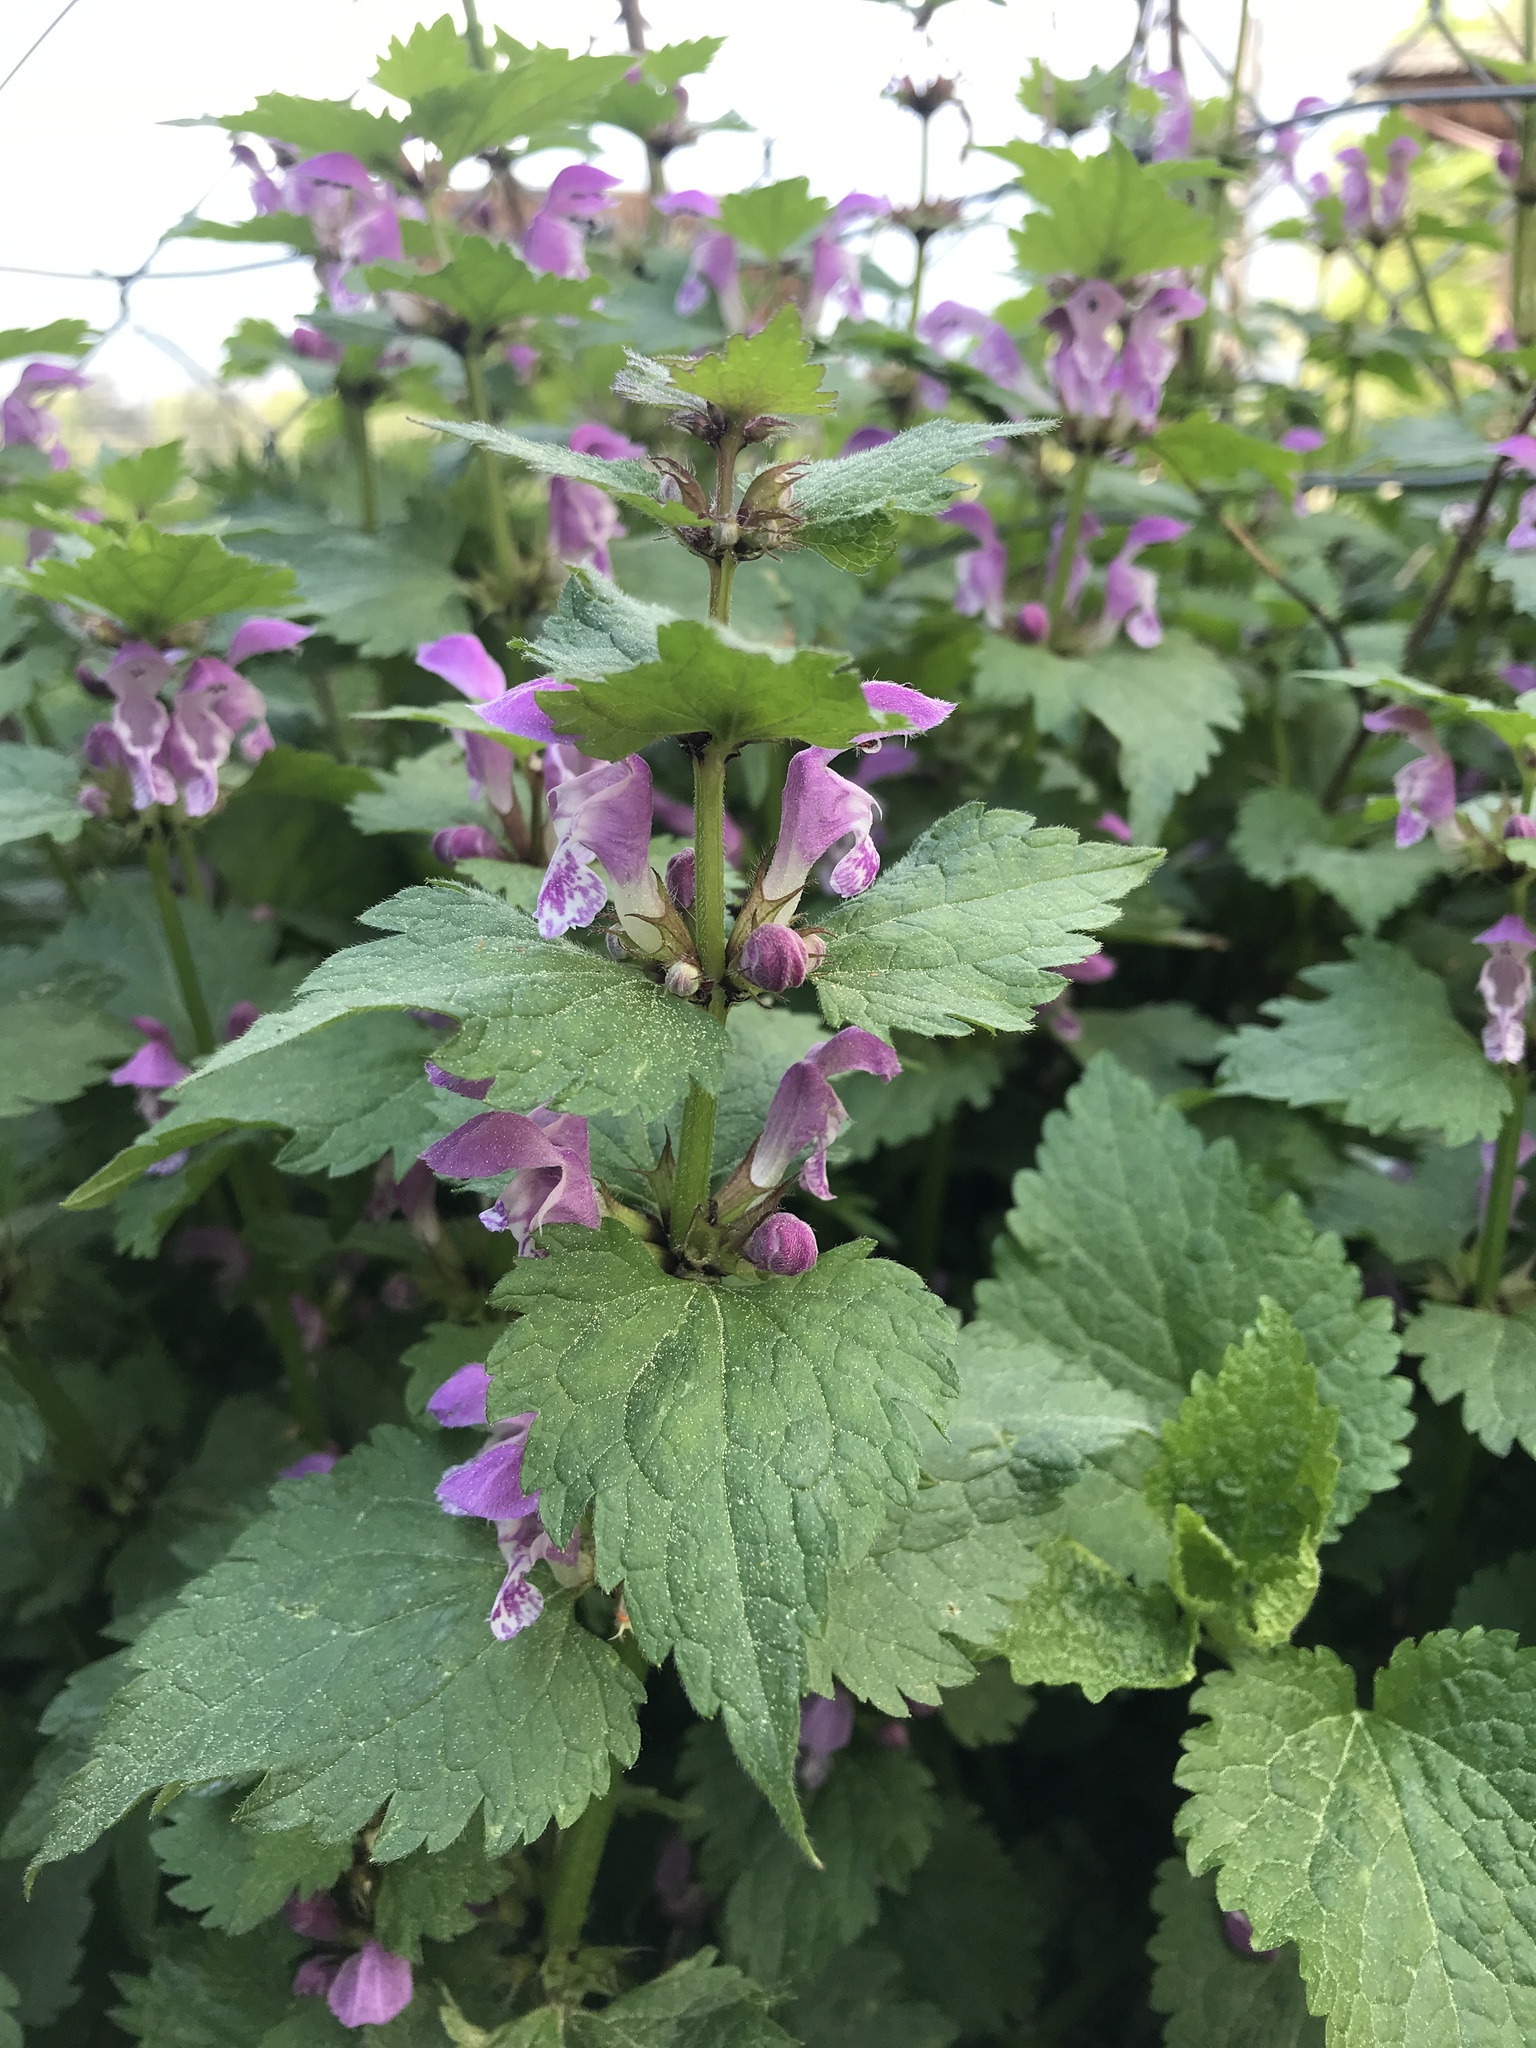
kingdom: Plantae
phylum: Tracheophyta
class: Magnoliopsida
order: Lamiales
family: Lamiaceae
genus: Lamium
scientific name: Lamium maculatum
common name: Spotted dead-nettle
